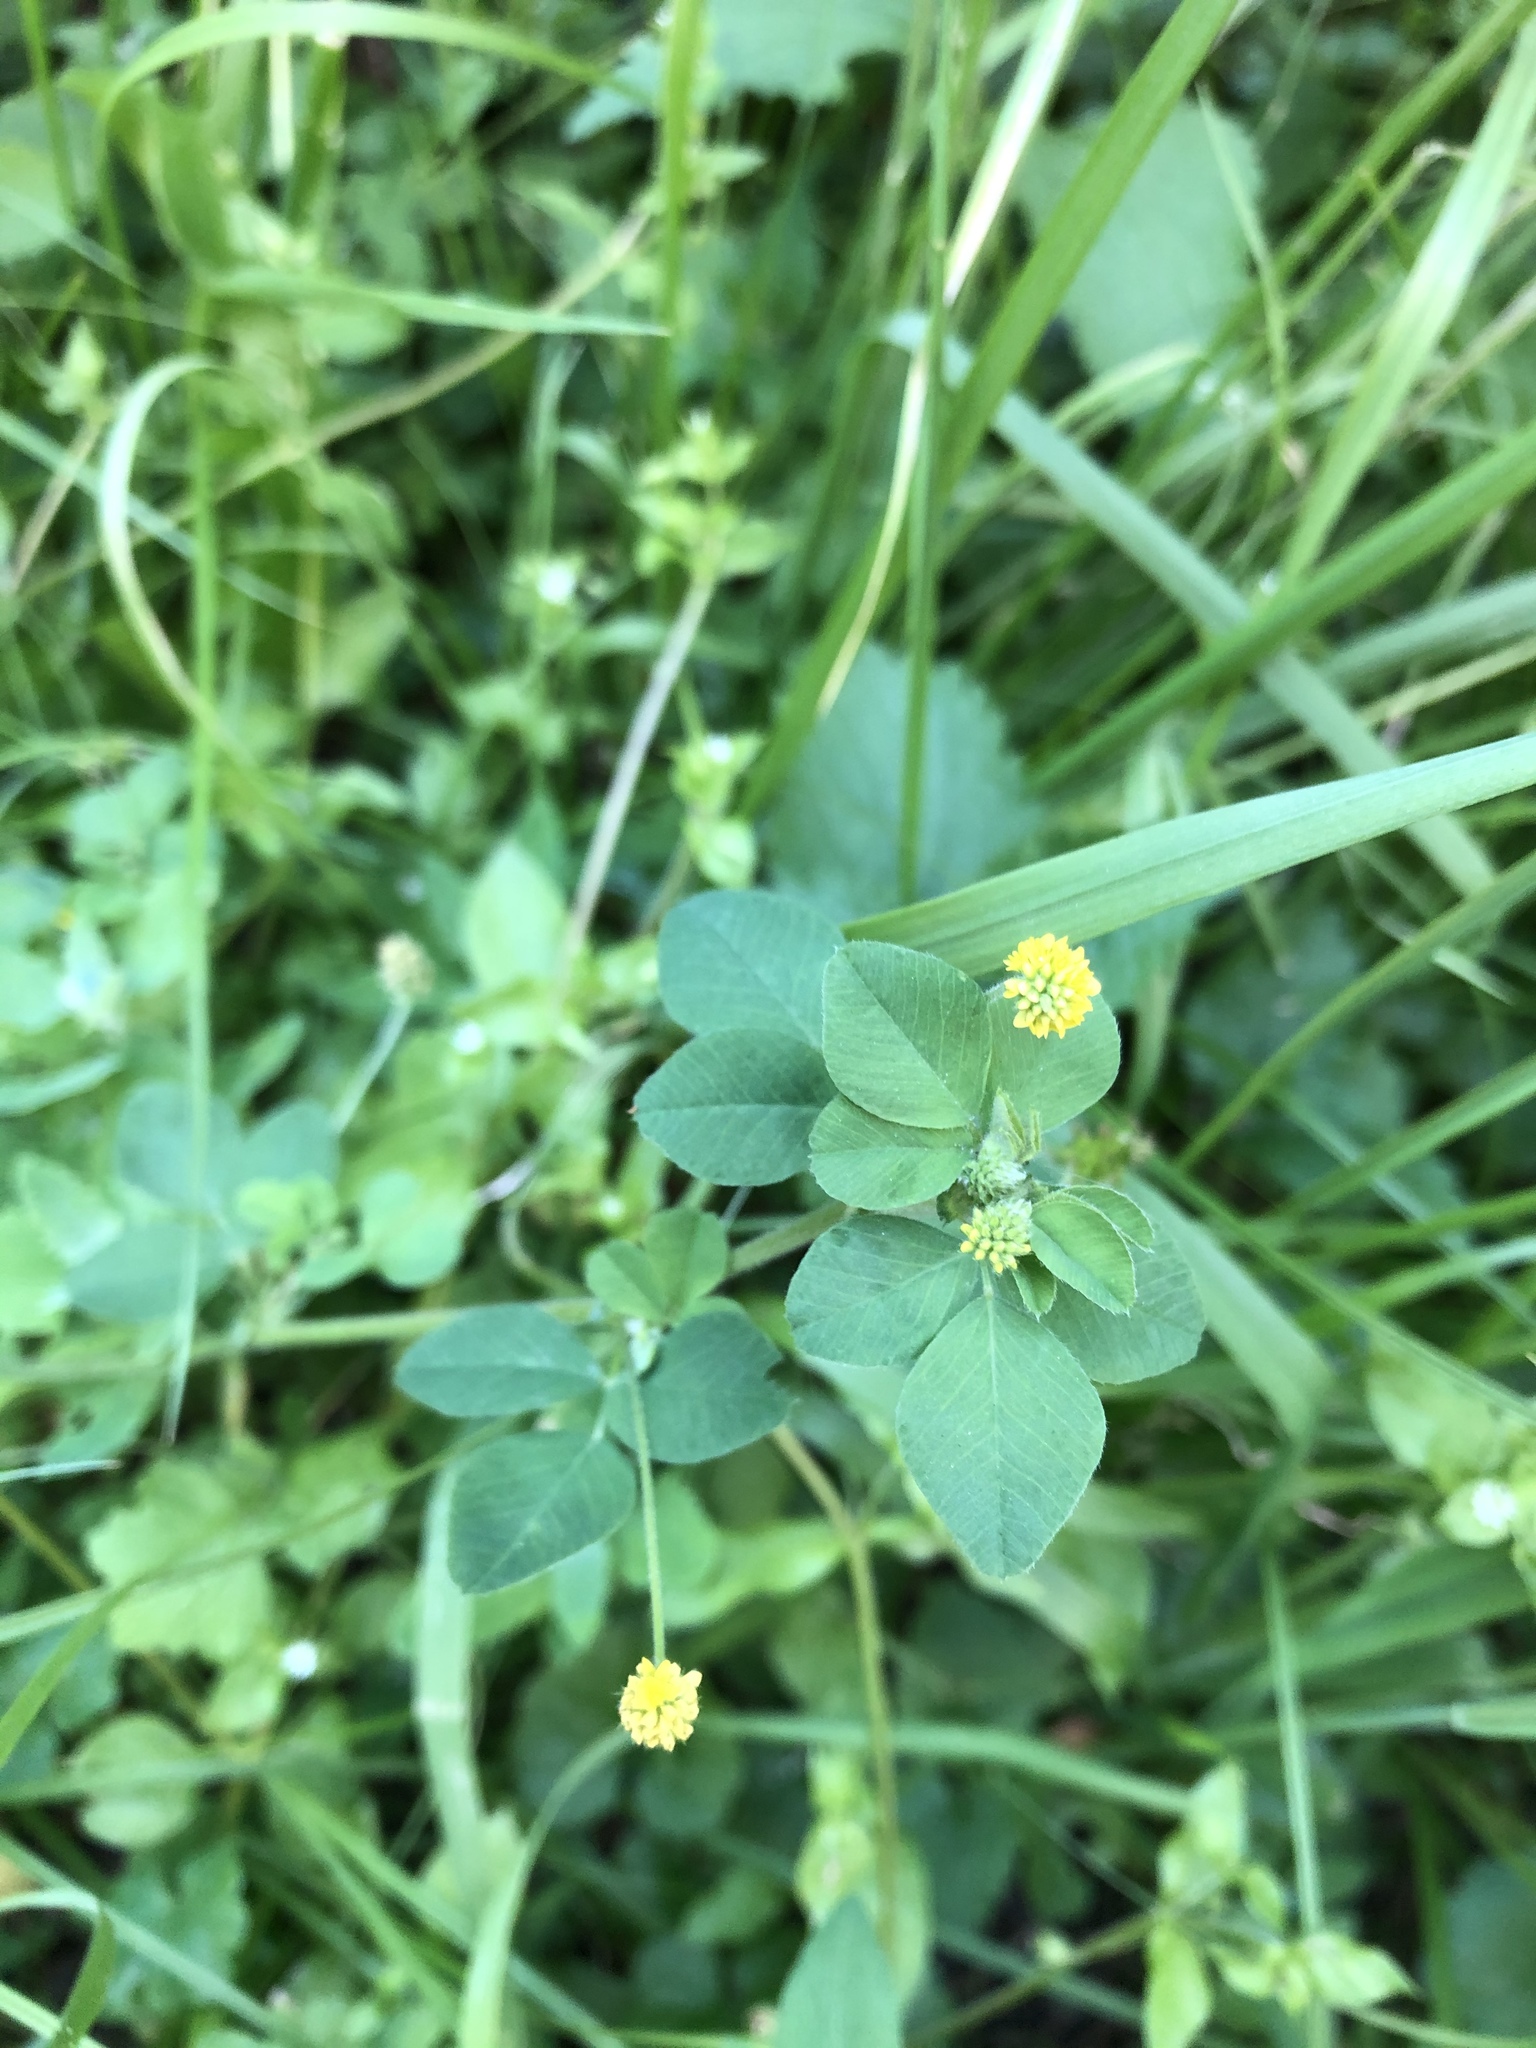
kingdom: Plantae
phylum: Tracheophyta
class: Magnoliopsida
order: Fabales
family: Fabaceae
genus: Medicago
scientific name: Medicago lupulina
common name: Black medick
